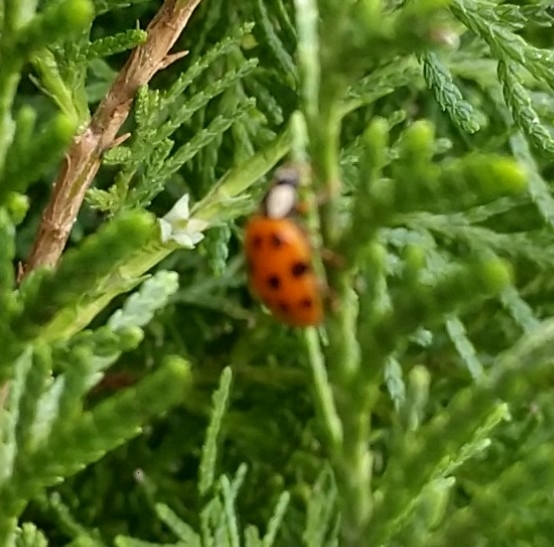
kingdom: Animalia
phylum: Arthropoda
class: Insecta
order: Coleoptera
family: Coccinellidae
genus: Harmonia
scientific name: Harmonia axyridis
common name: Harlequin ladybird
